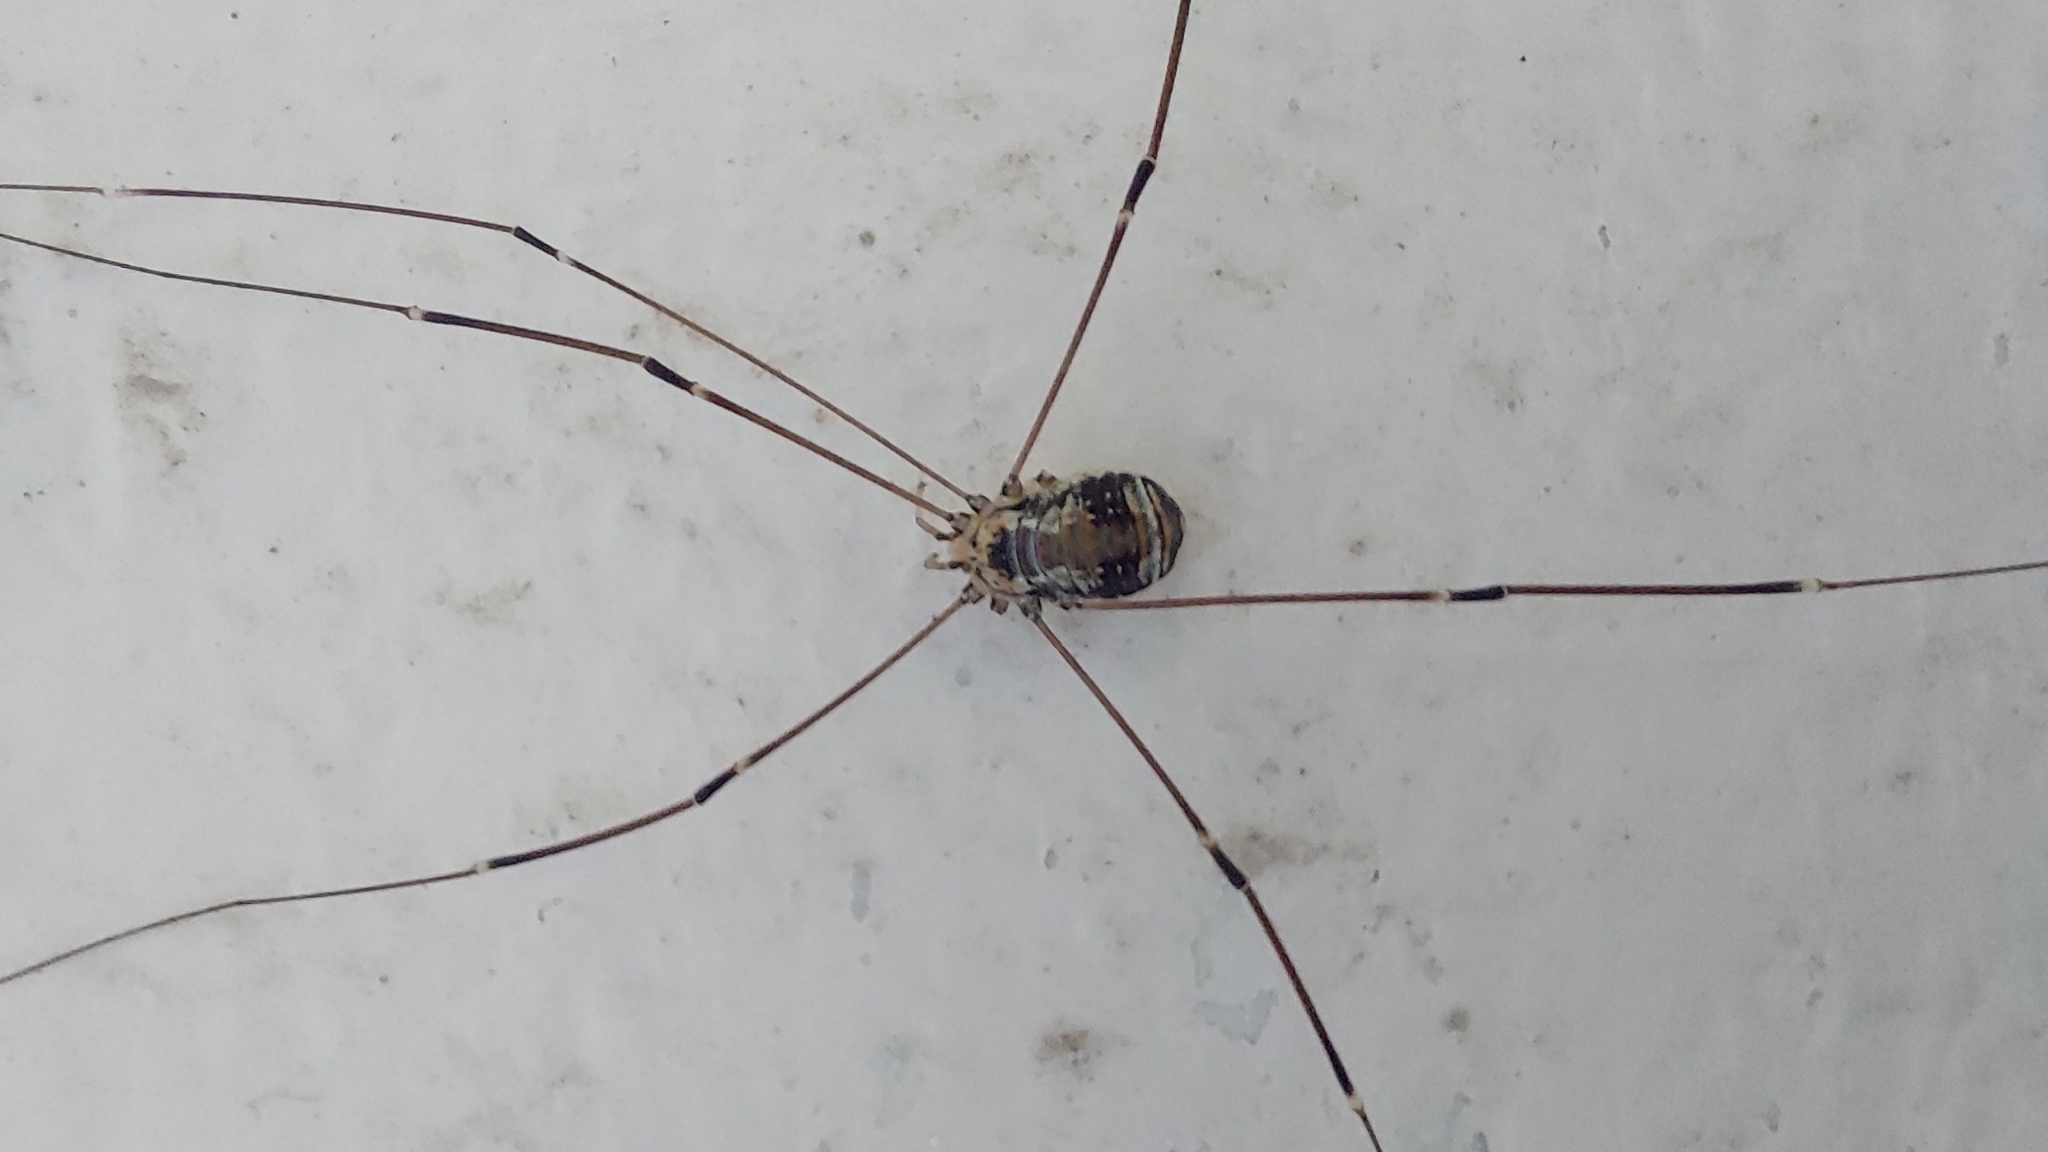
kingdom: Animalia
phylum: Arthropoda
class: Arachnida
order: Opiliones
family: Sclerosomatidae
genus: Leiobunum
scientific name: Leiobunum limbatum
